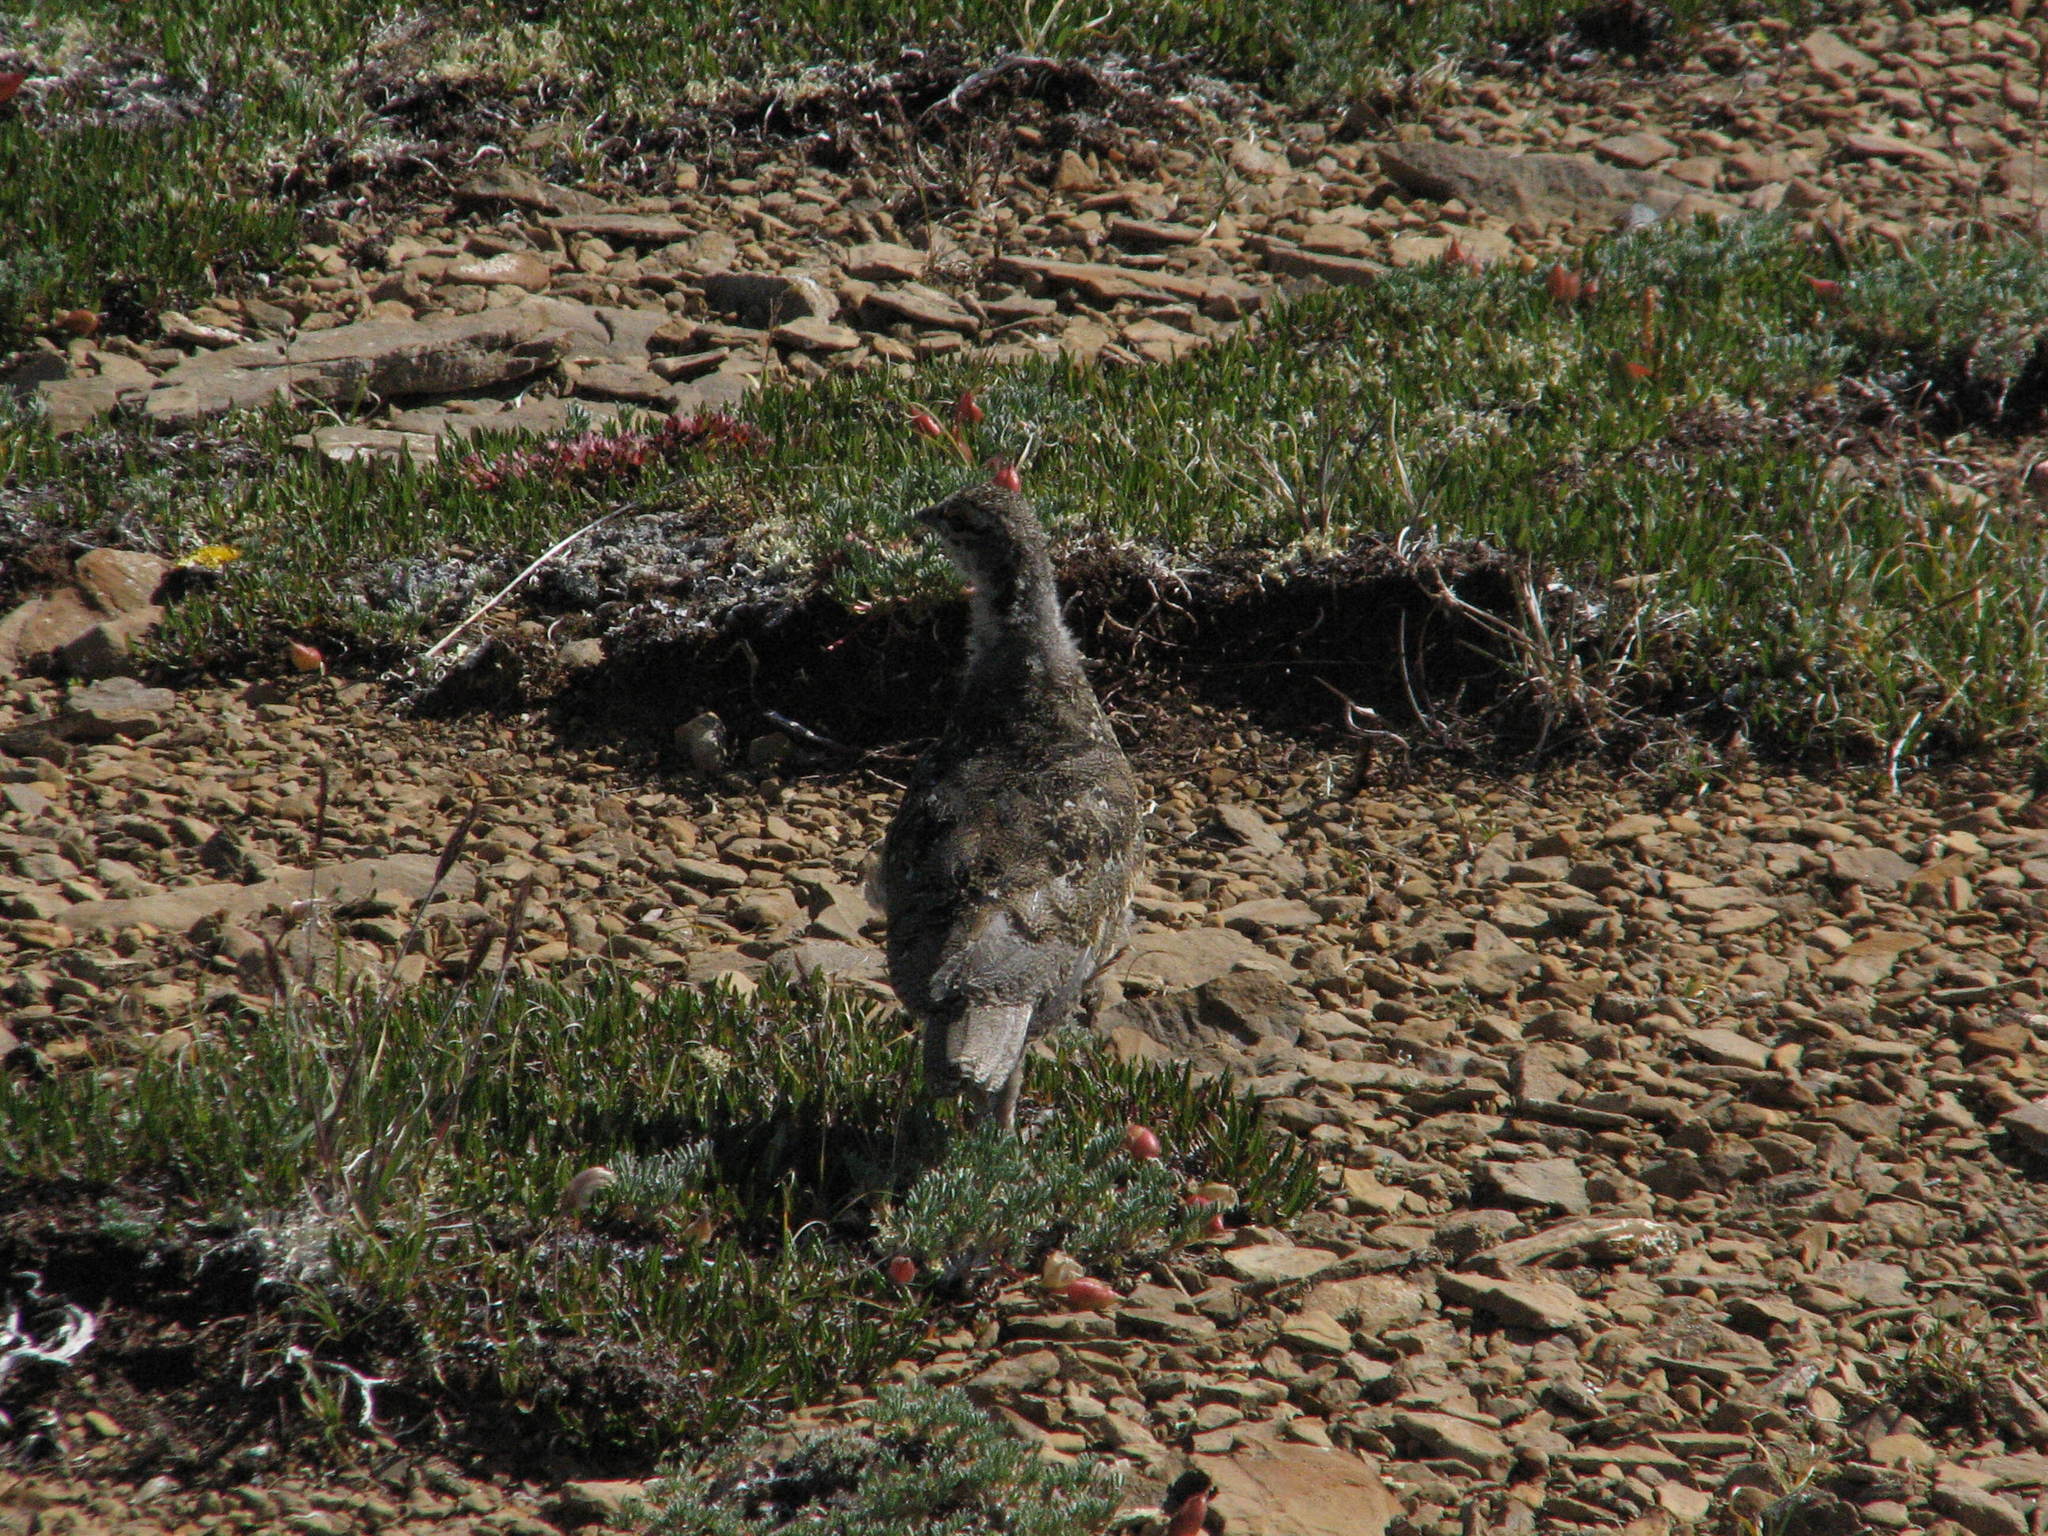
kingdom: Animalia
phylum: Chordata
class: Aves
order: Galliformes
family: Phasianidae
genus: Lagopus
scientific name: Lagopus leucura
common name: White-tailed ptarmigan
